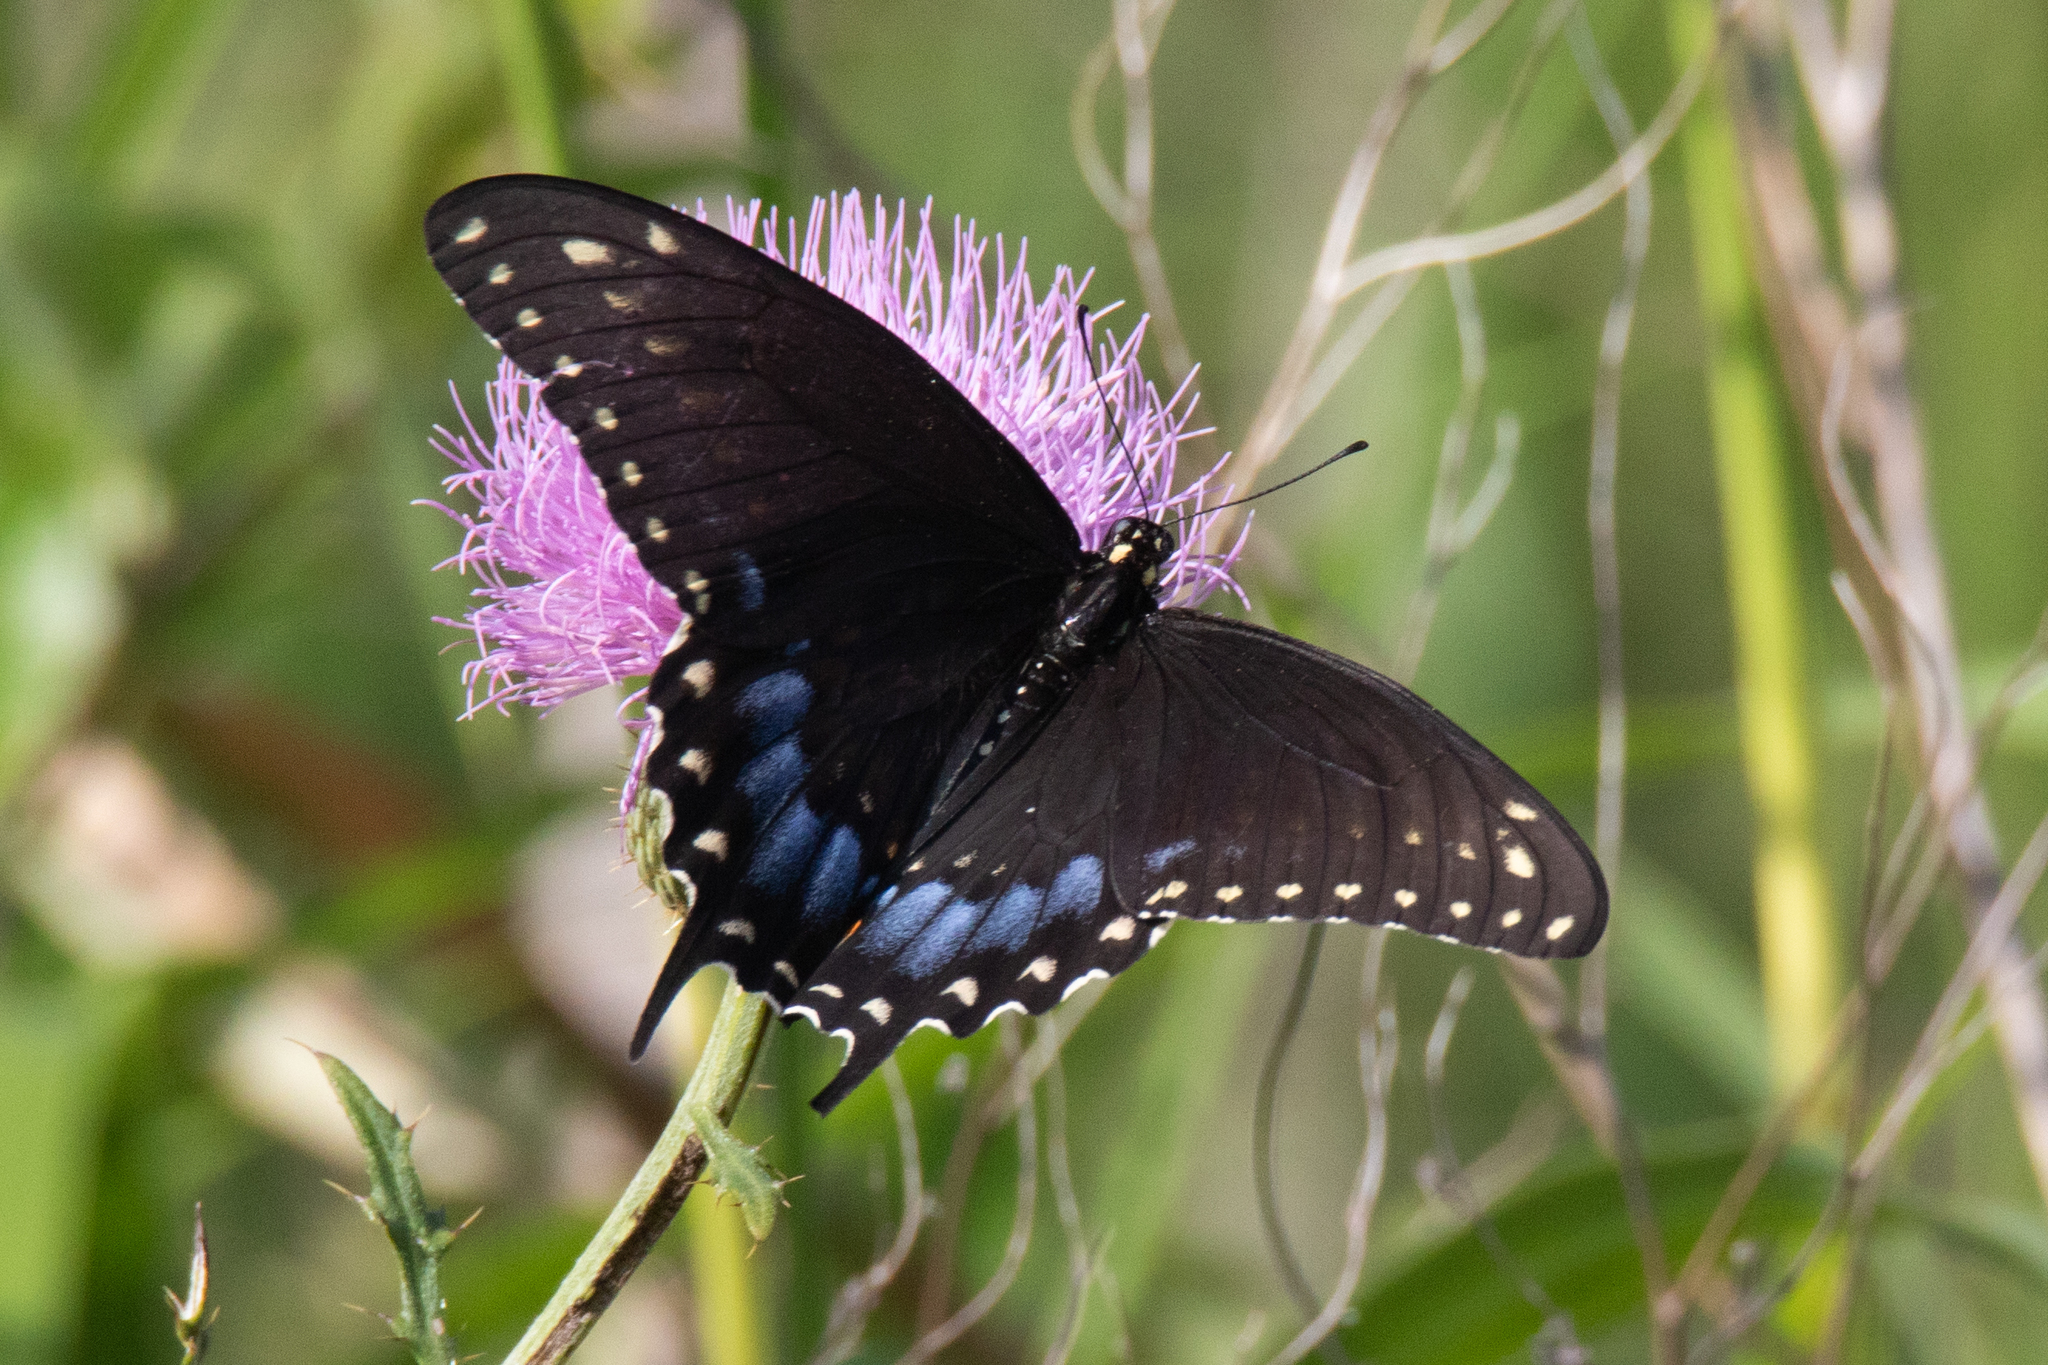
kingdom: Animalia
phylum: Arthropoda
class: Insecta
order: Lepidoptera
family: Papilionidae
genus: Papilio
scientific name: Papilio polyxenes
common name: Black swallowtail
